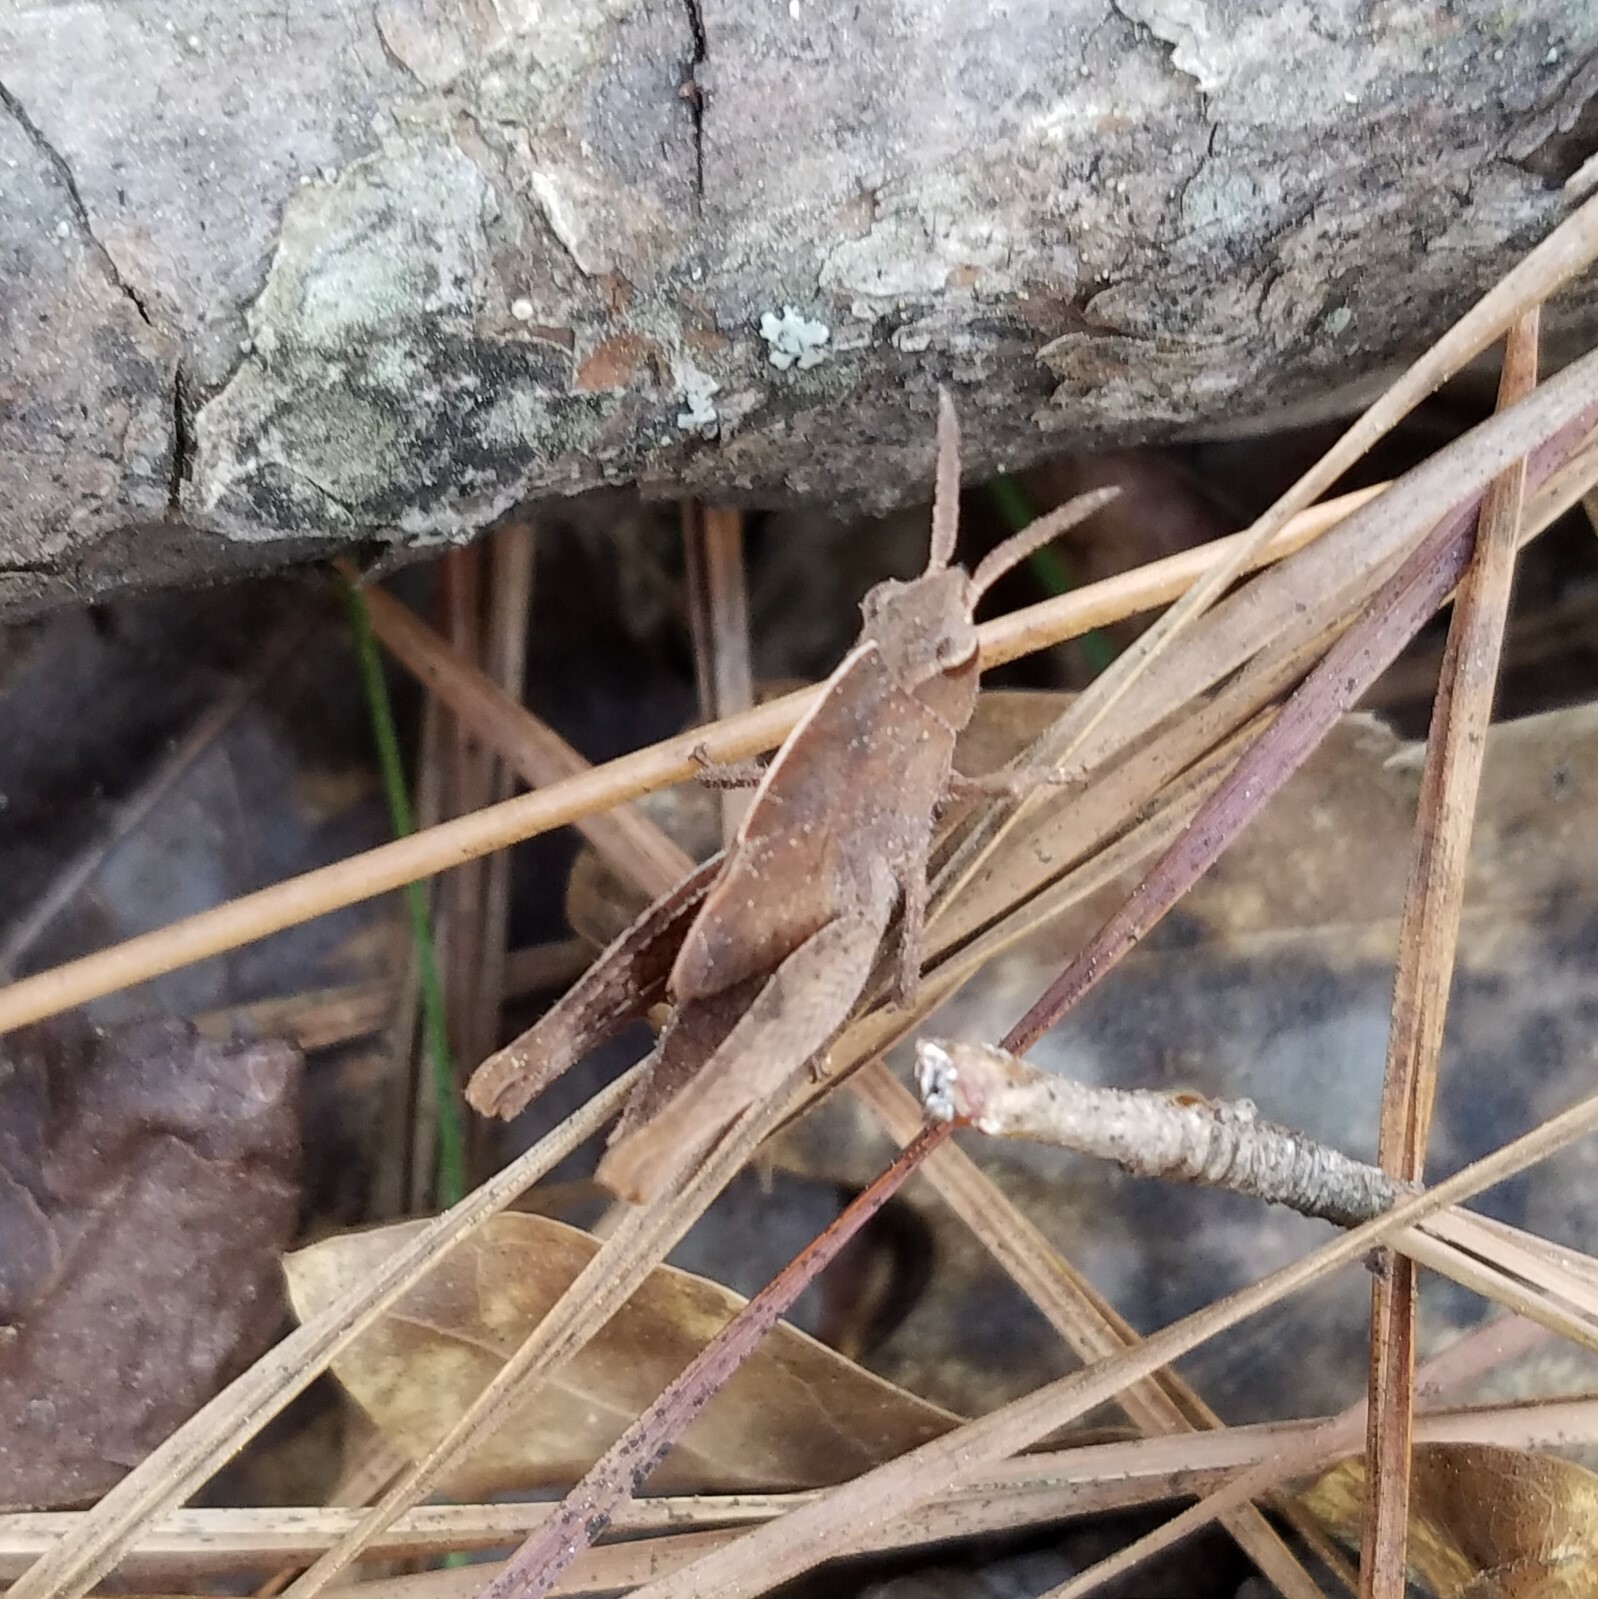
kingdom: Animalia
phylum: Arthropoda
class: Insecta
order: Orthoptera
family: Acrididae
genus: Chortophaga
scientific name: Chortophaga viridifasciata
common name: Green-striped grasshopper
